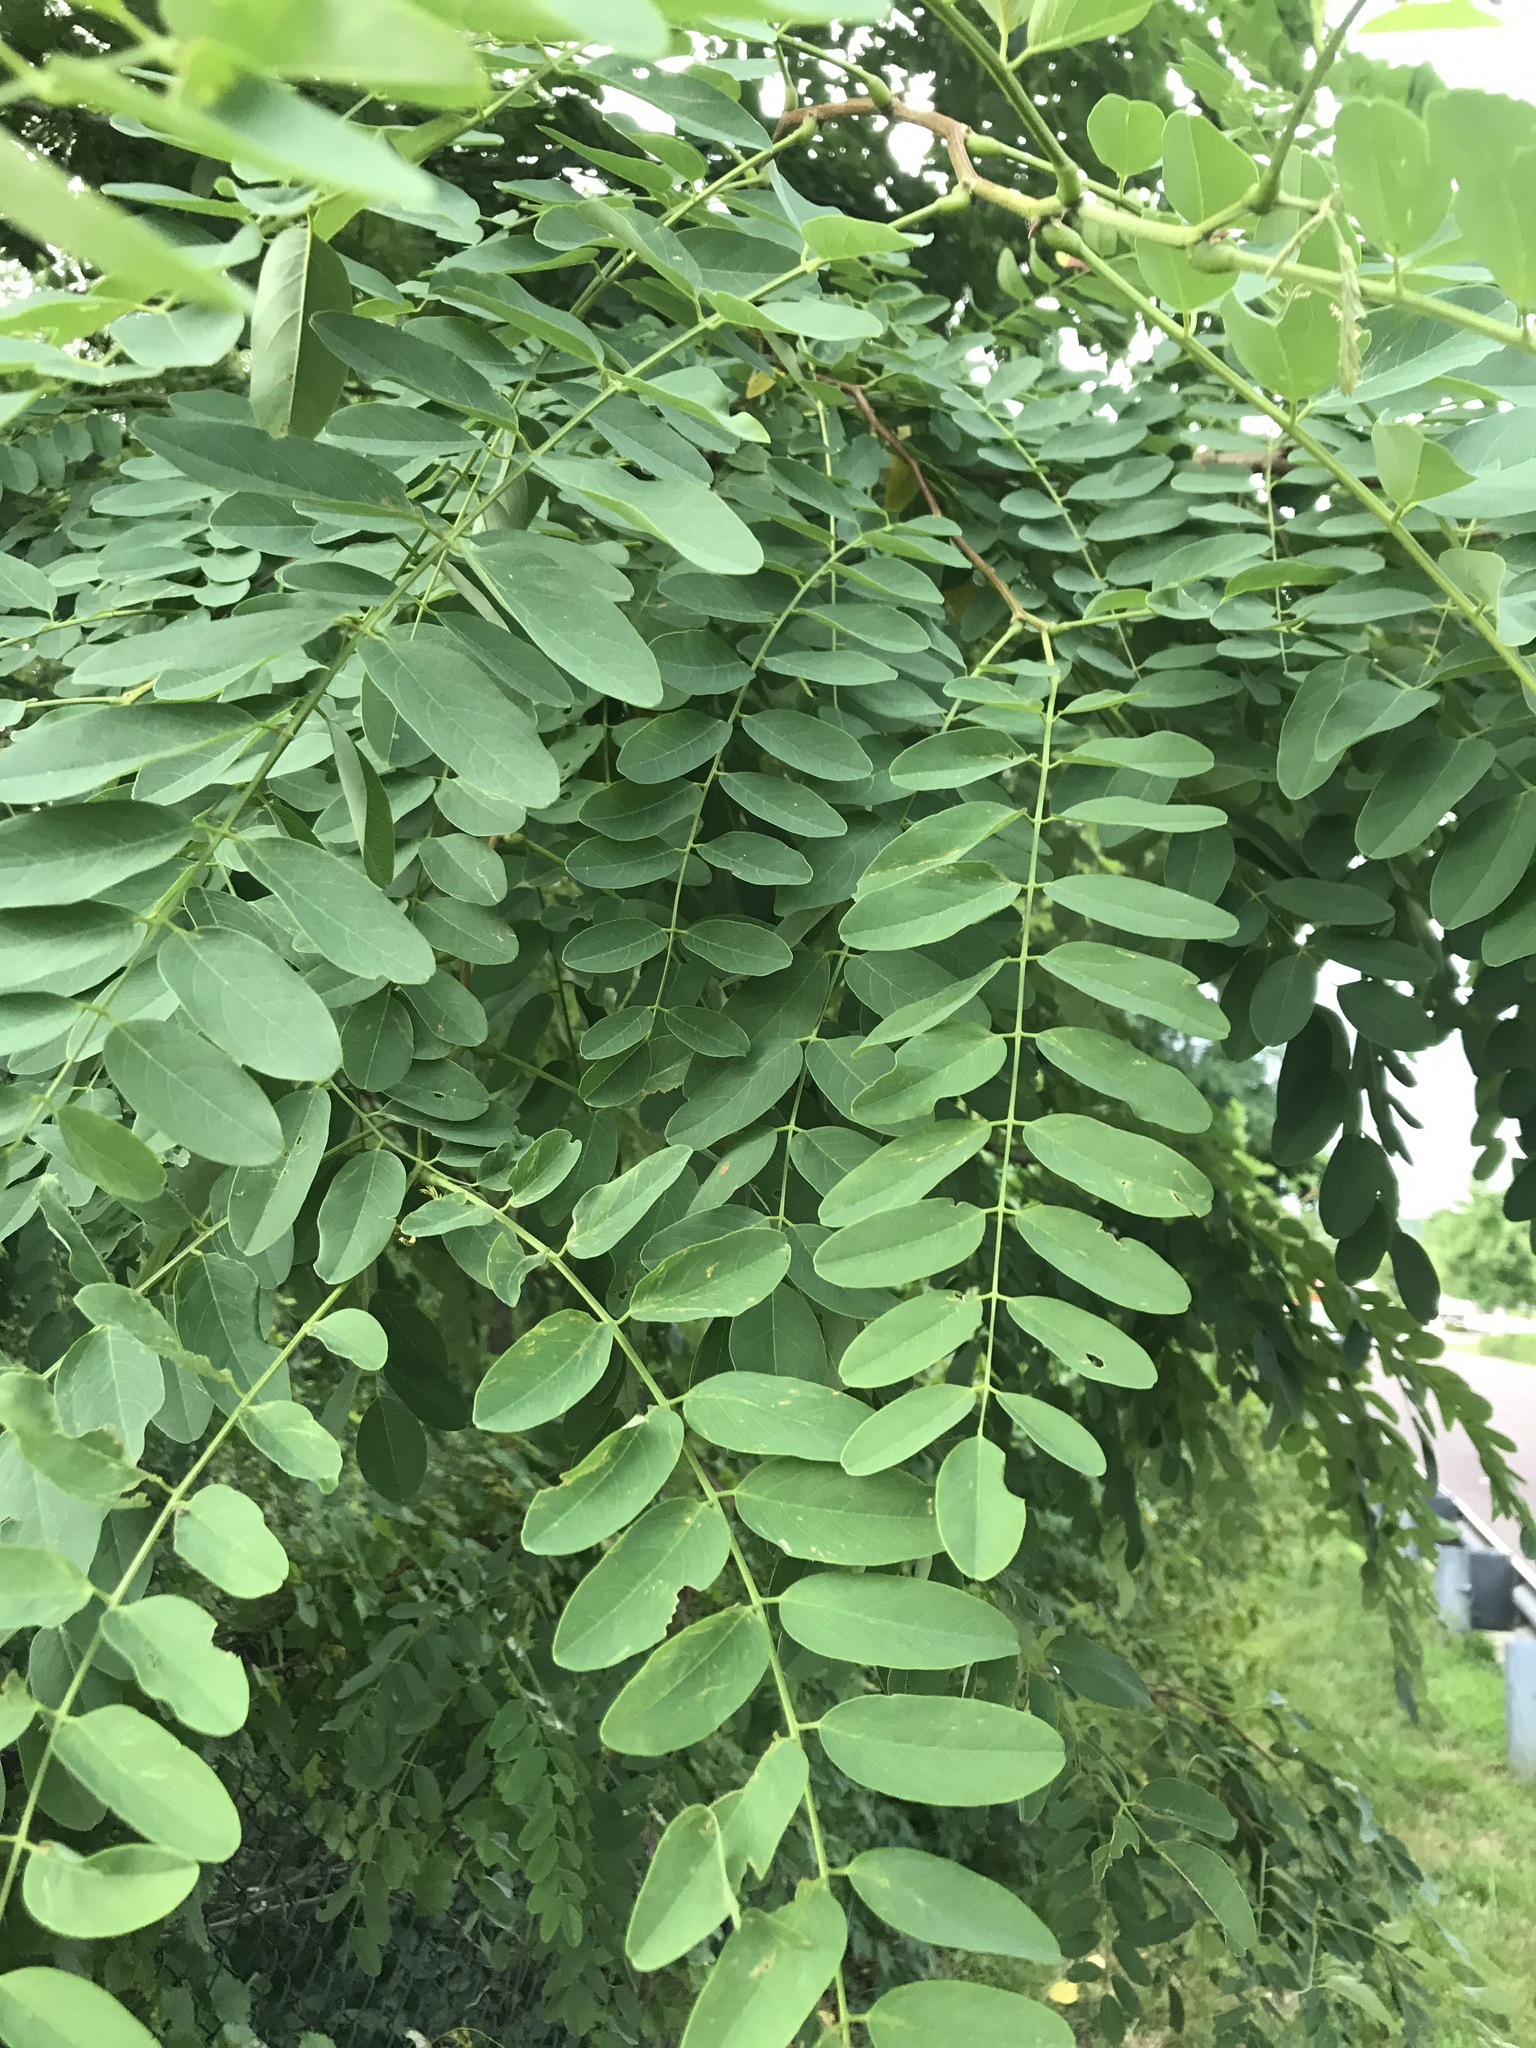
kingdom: Plantae
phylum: Tracheophyta
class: Magnoliopsida
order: Fabales
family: Fabaceae
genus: Robinia
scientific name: Robinia pseudoacacia
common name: Black locust
